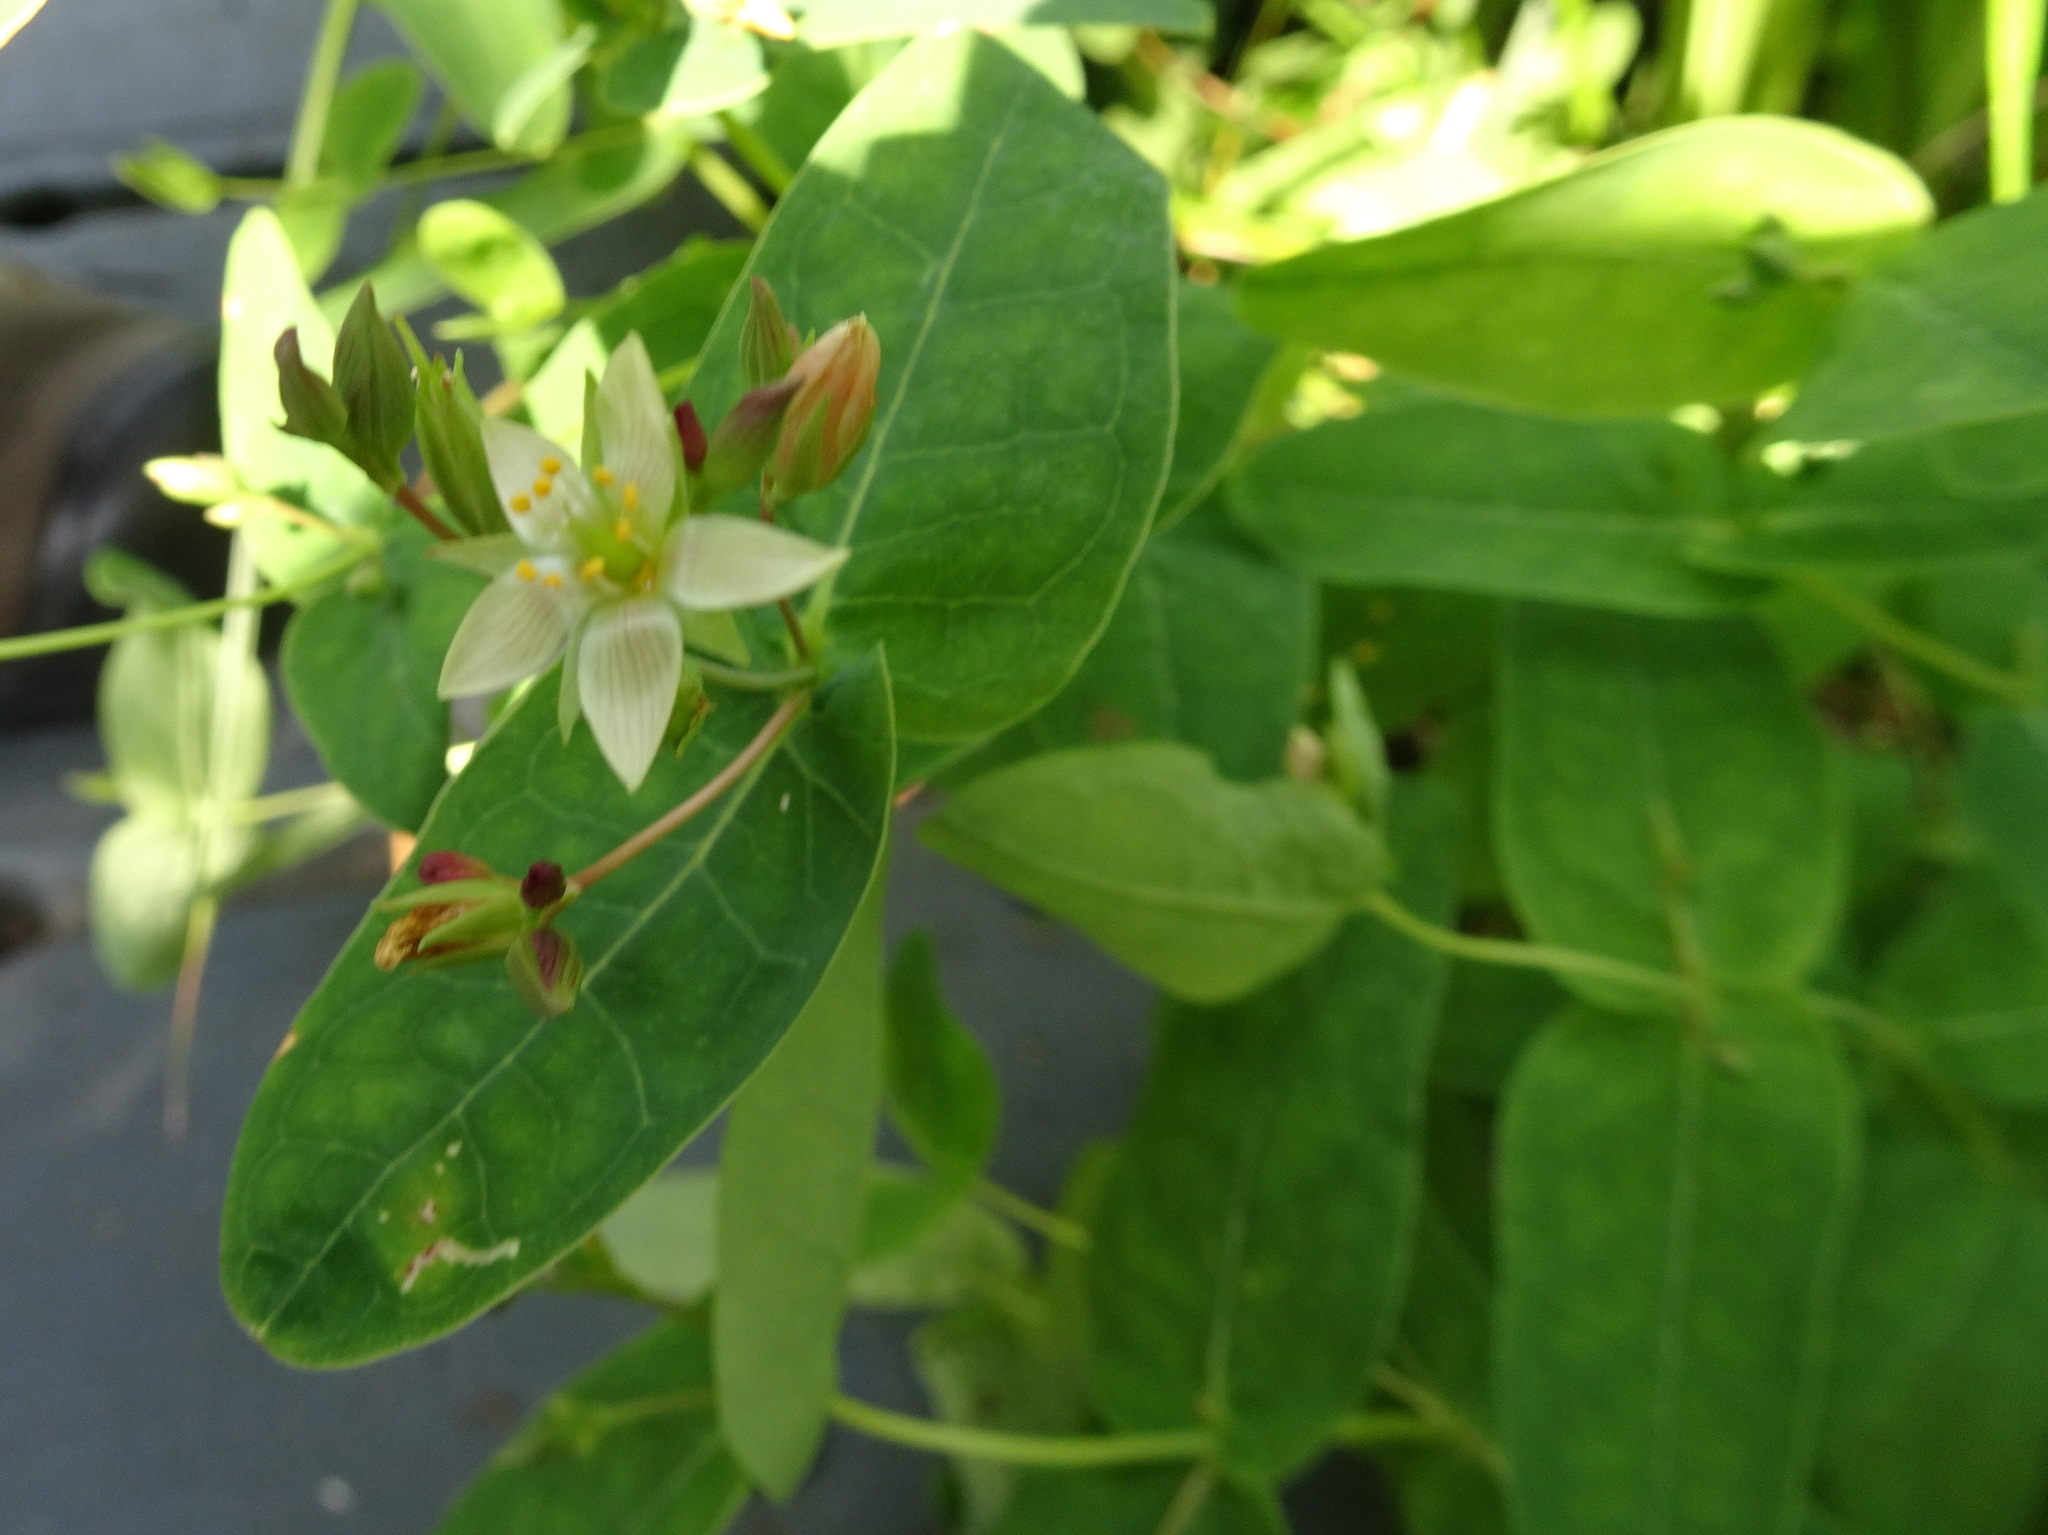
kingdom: Plantae
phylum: Tracheophyta
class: Magnoliopsida
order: Malpighiales
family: Hypericaceae
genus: Triadenum
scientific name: Triadenum virginicum
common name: Marsh st. john's-wort
